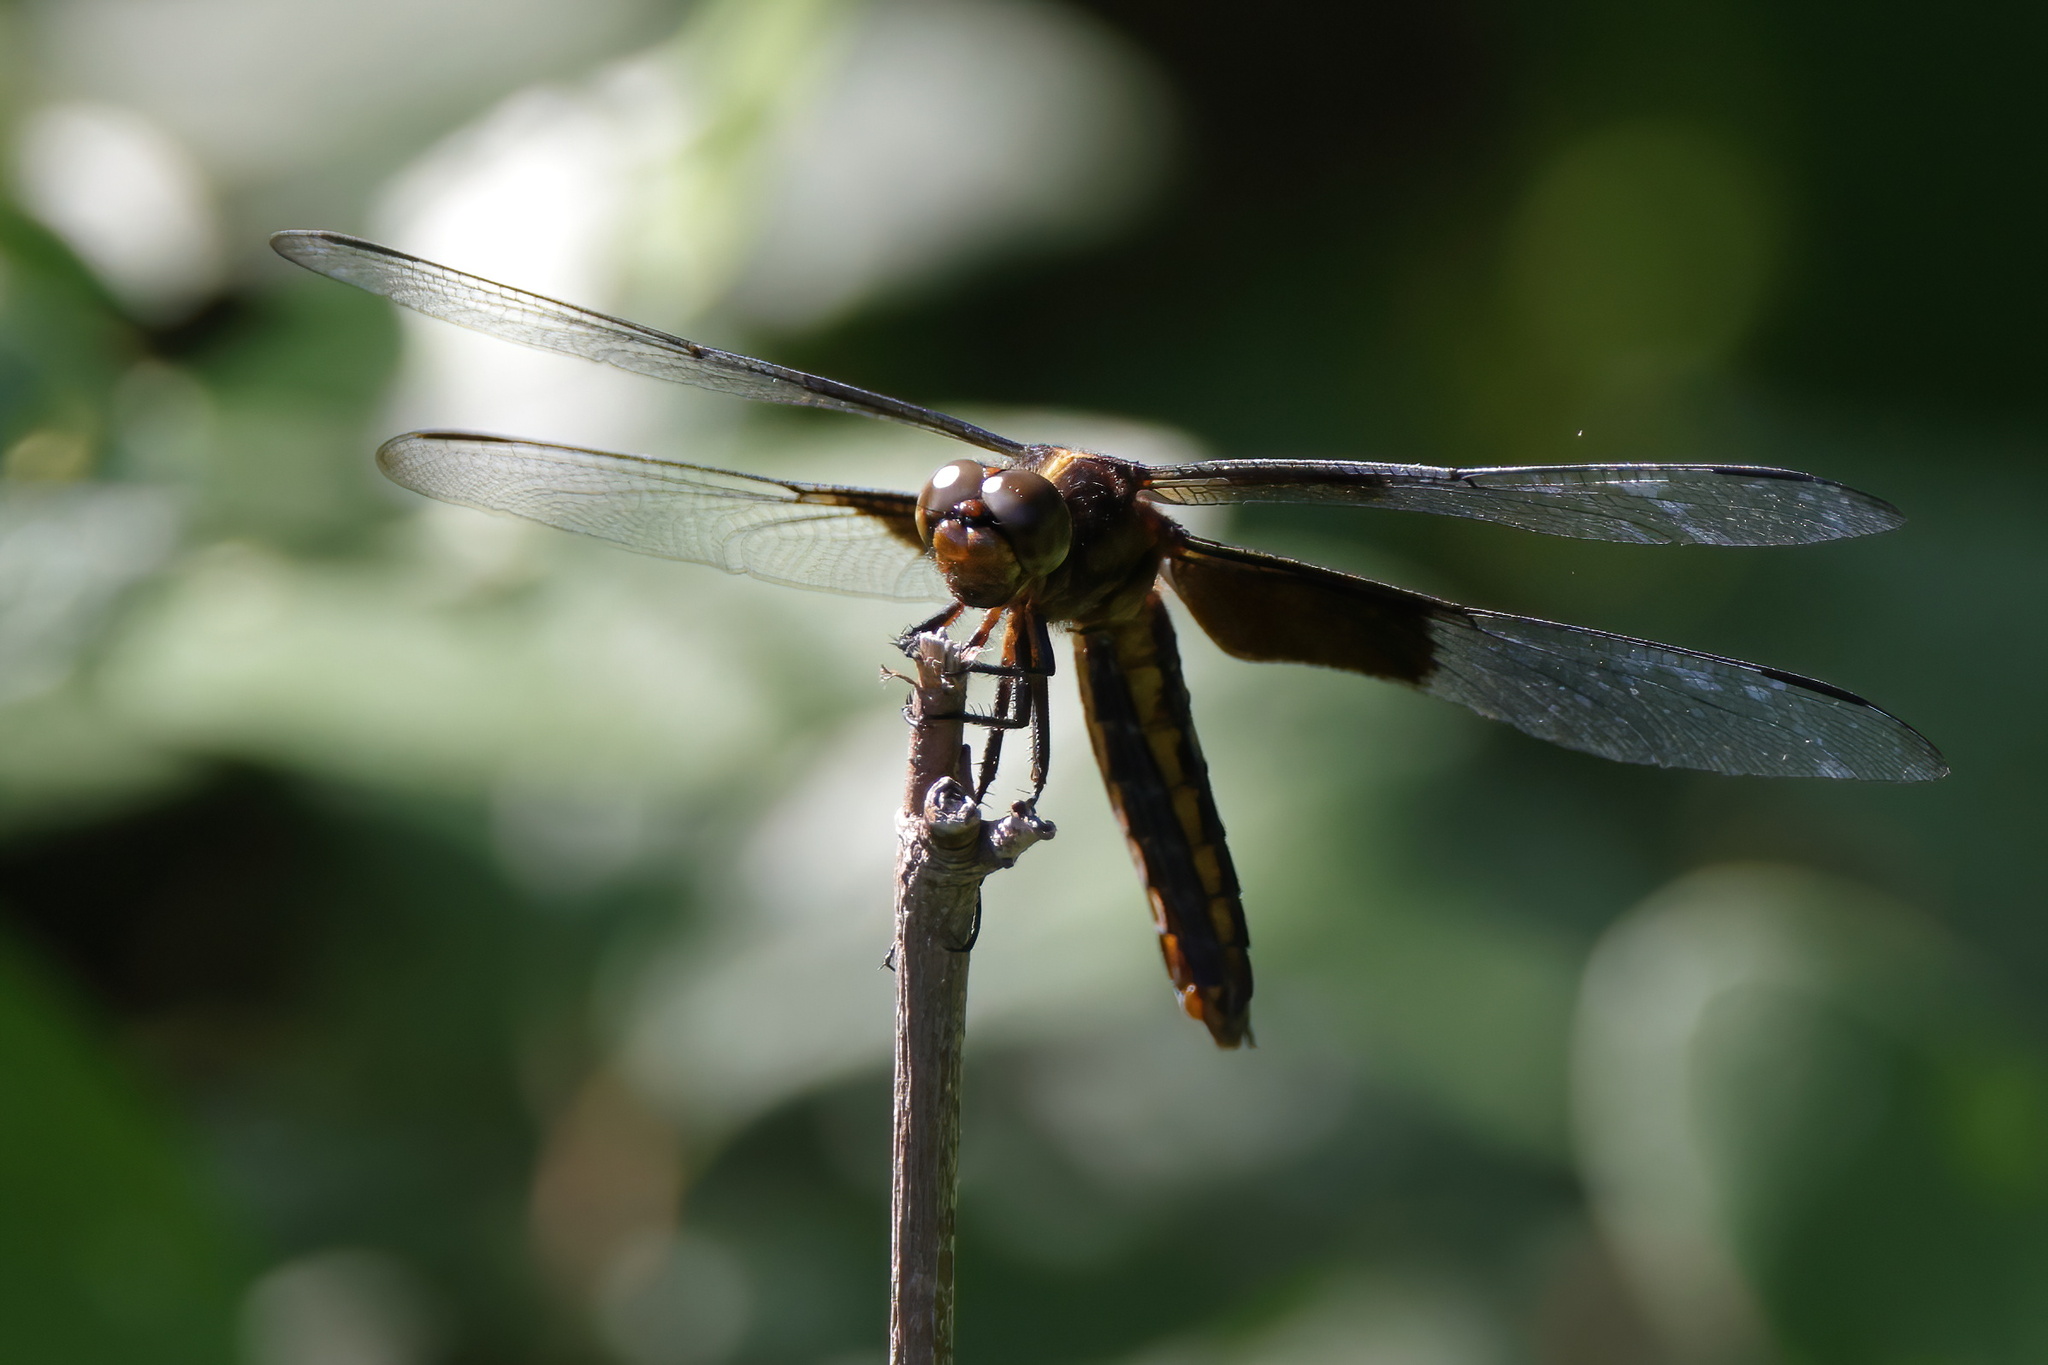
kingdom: Animalia
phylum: Arthropoda
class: Insecta
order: Odonata
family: Libellulidae
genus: Libellula
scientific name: Libellula luctuosa
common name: Widow skimmer
